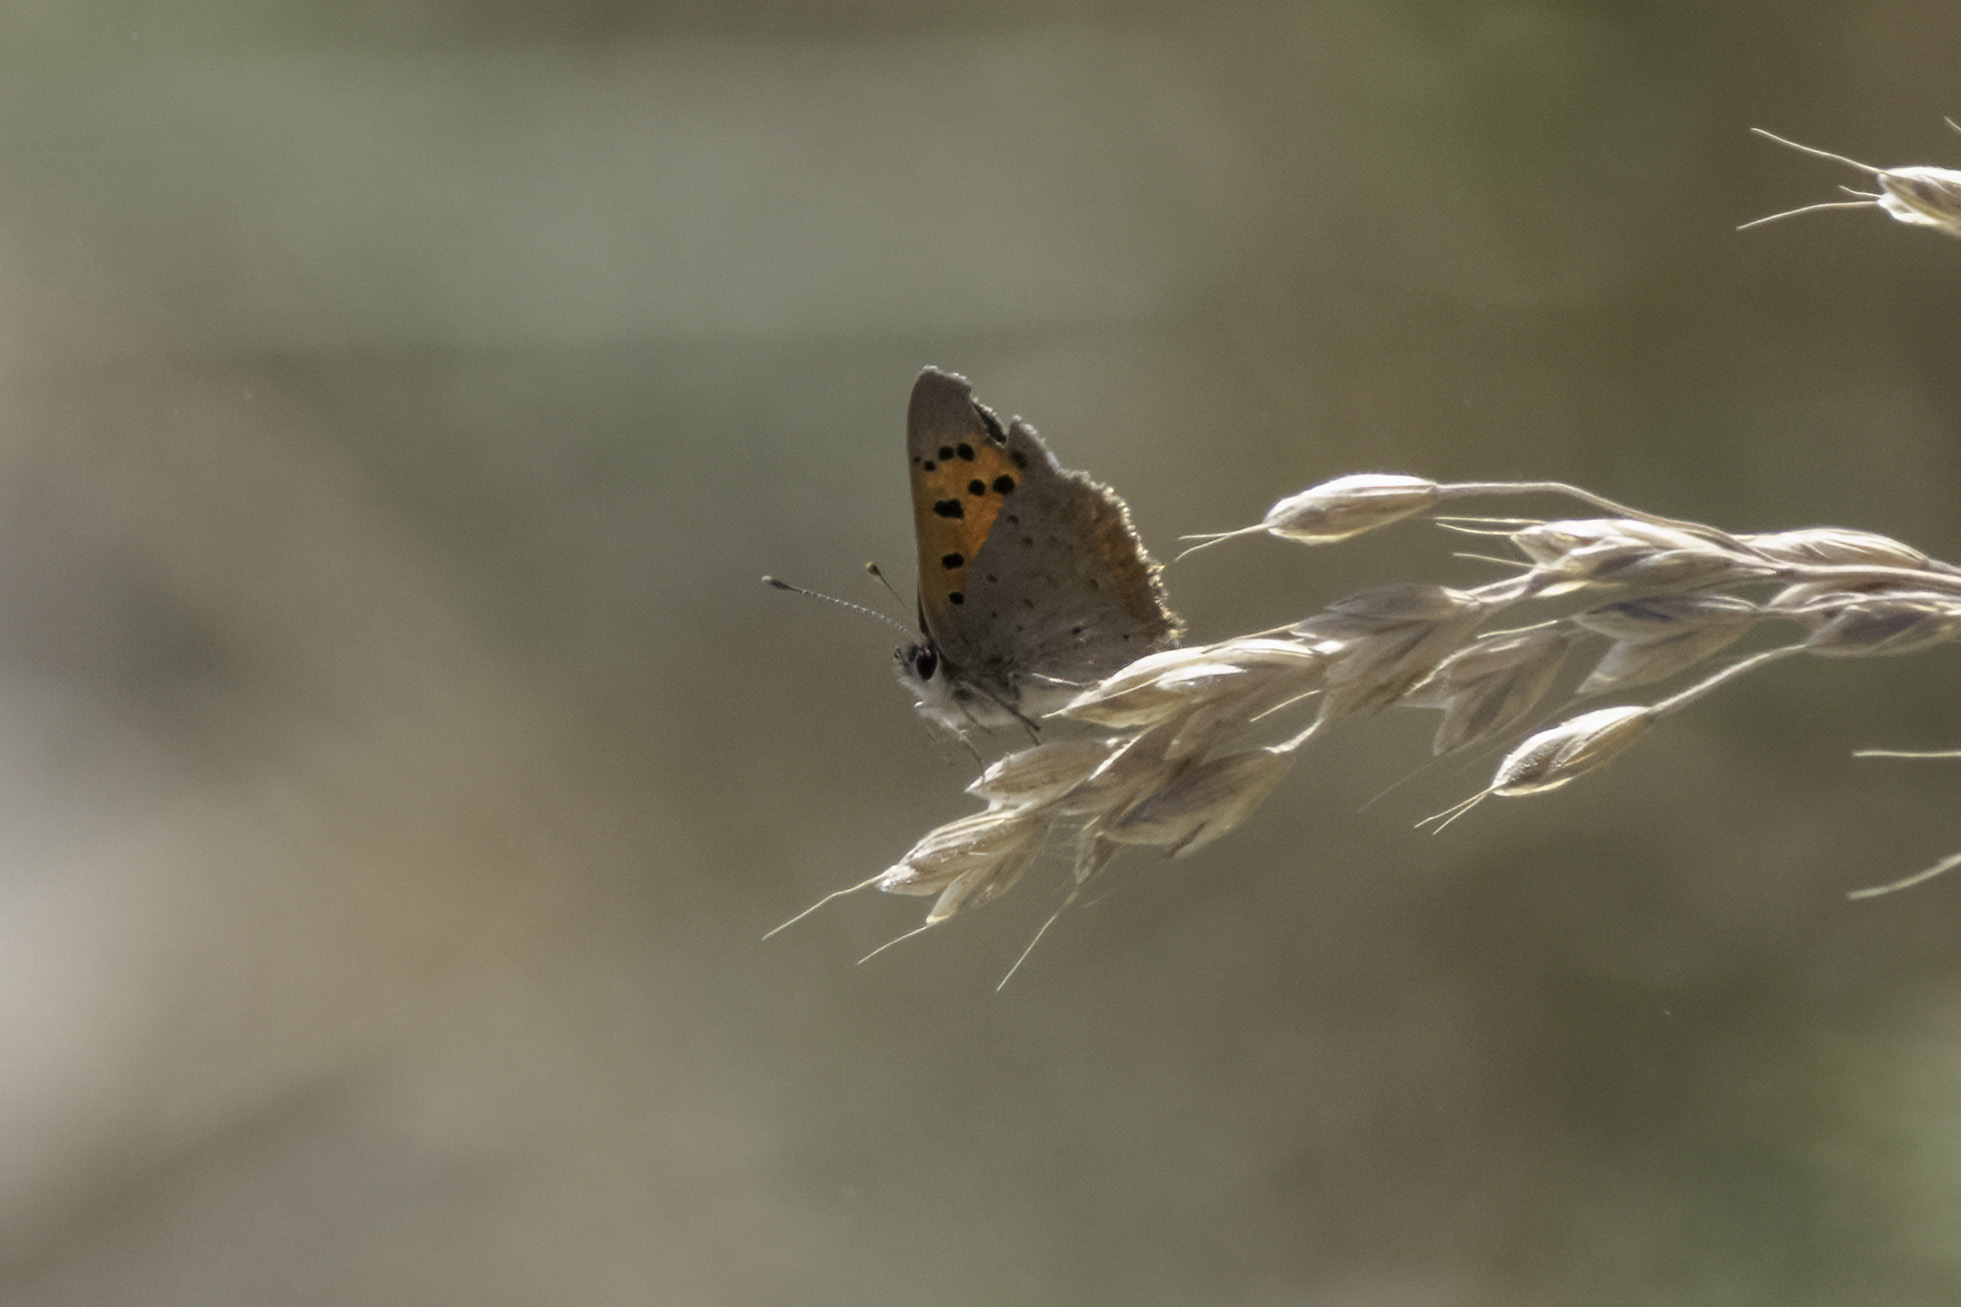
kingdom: Animalia
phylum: Arthropoda
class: Insecta
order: Lepidoptera
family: Lycaenidae
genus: Lycaena
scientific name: Lycaena phlaeas
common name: Small copper
